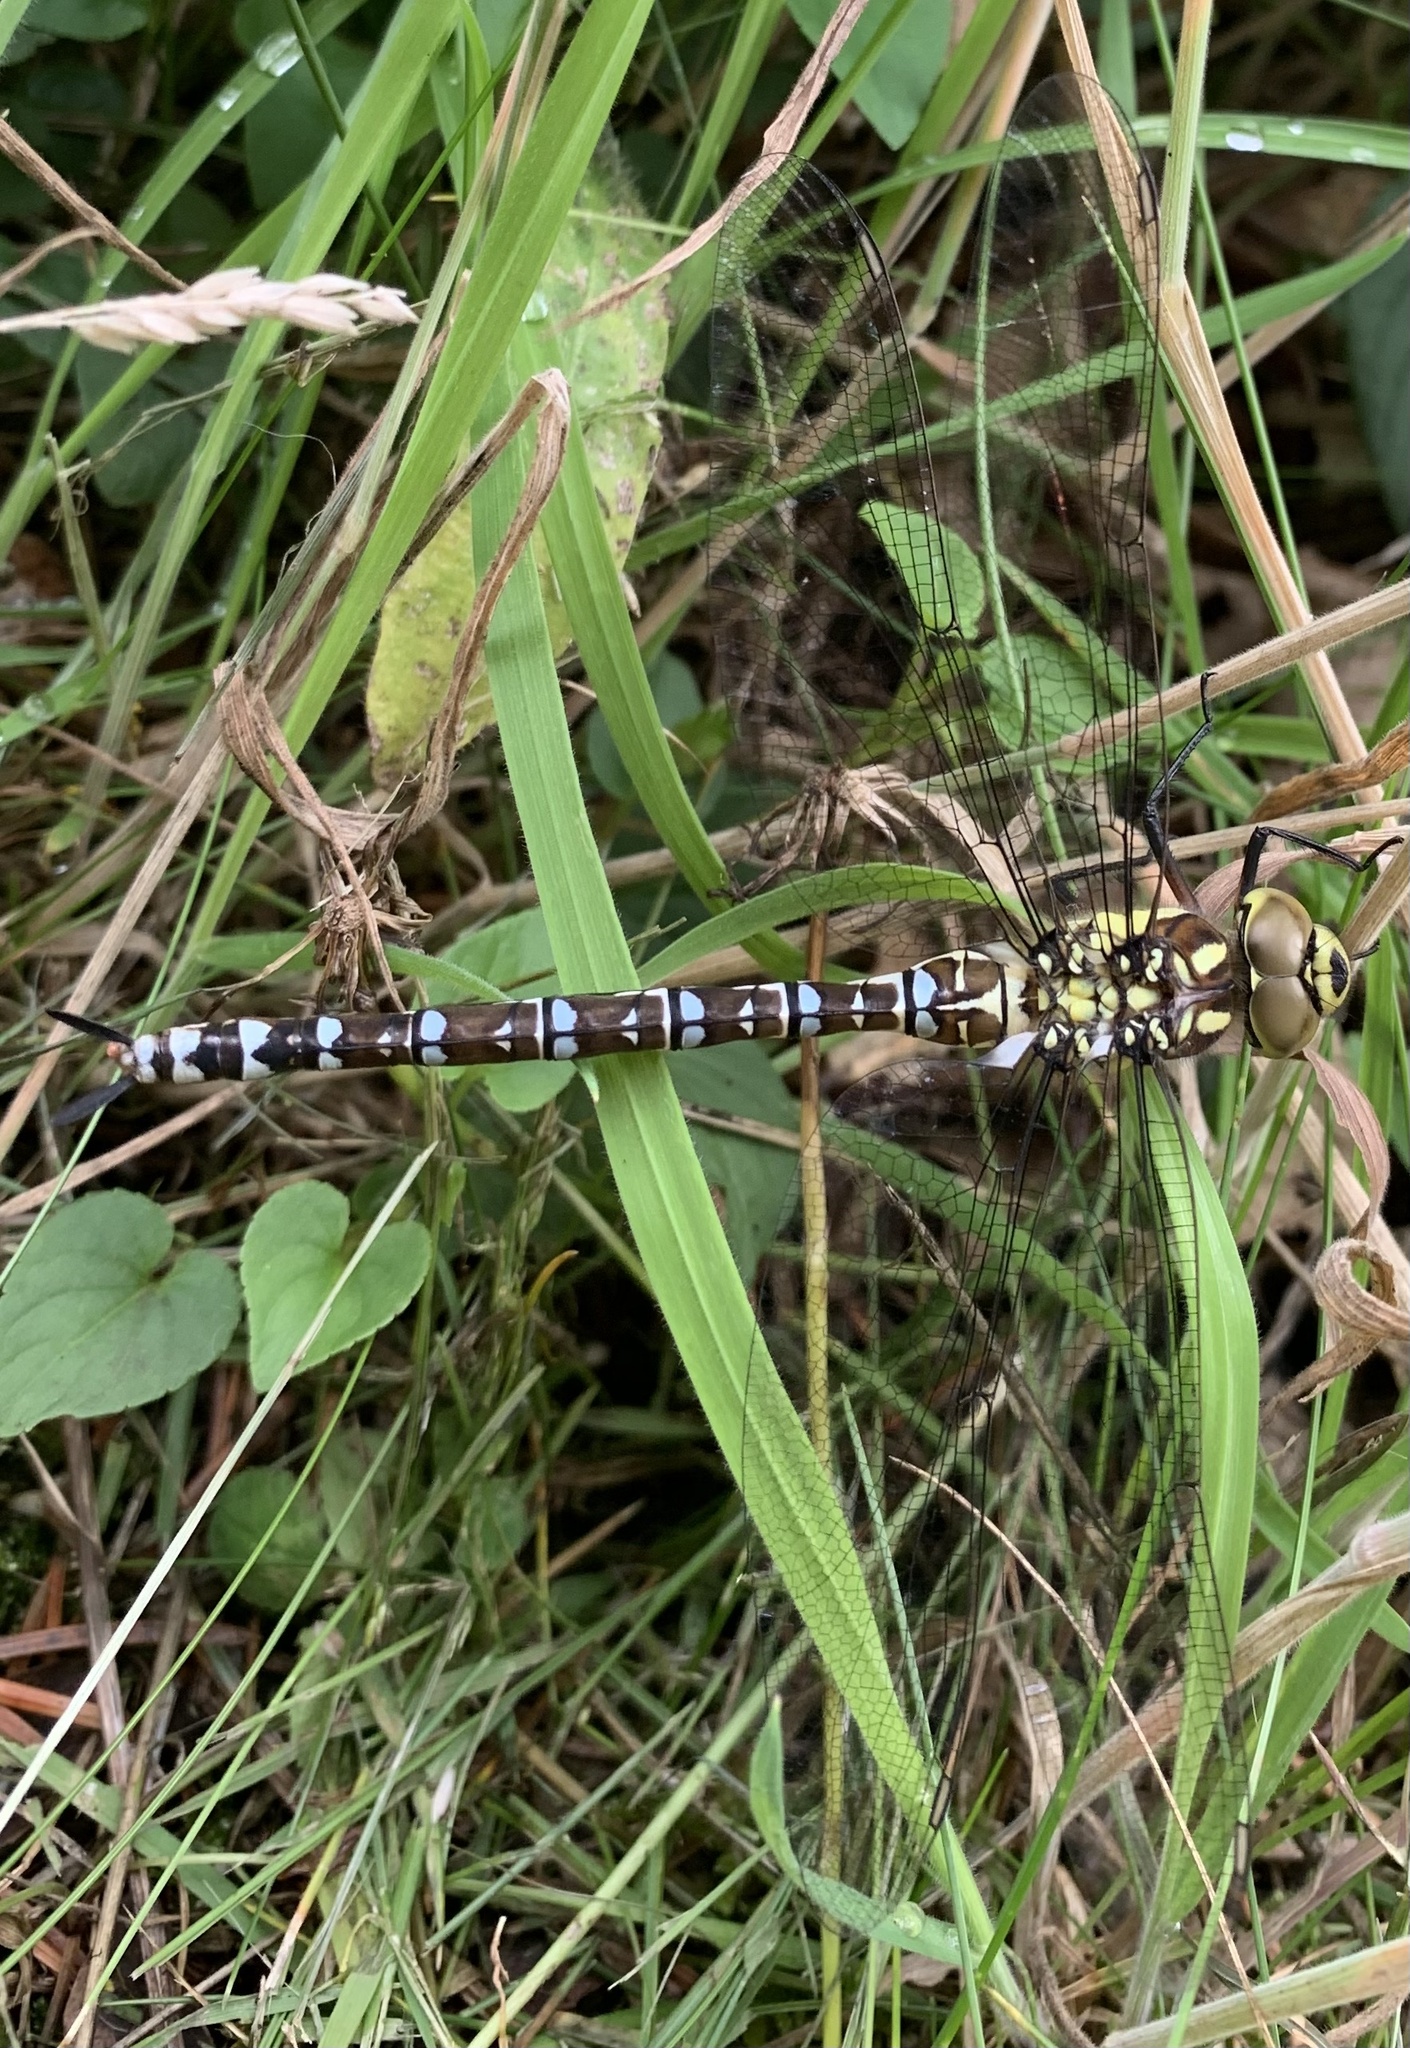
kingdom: Animalia
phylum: Arthropoda
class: Insecta
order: Odonata
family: Aeshnidae
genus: Aeshna
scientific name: Aeshna cyanea
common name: Southern hawker
